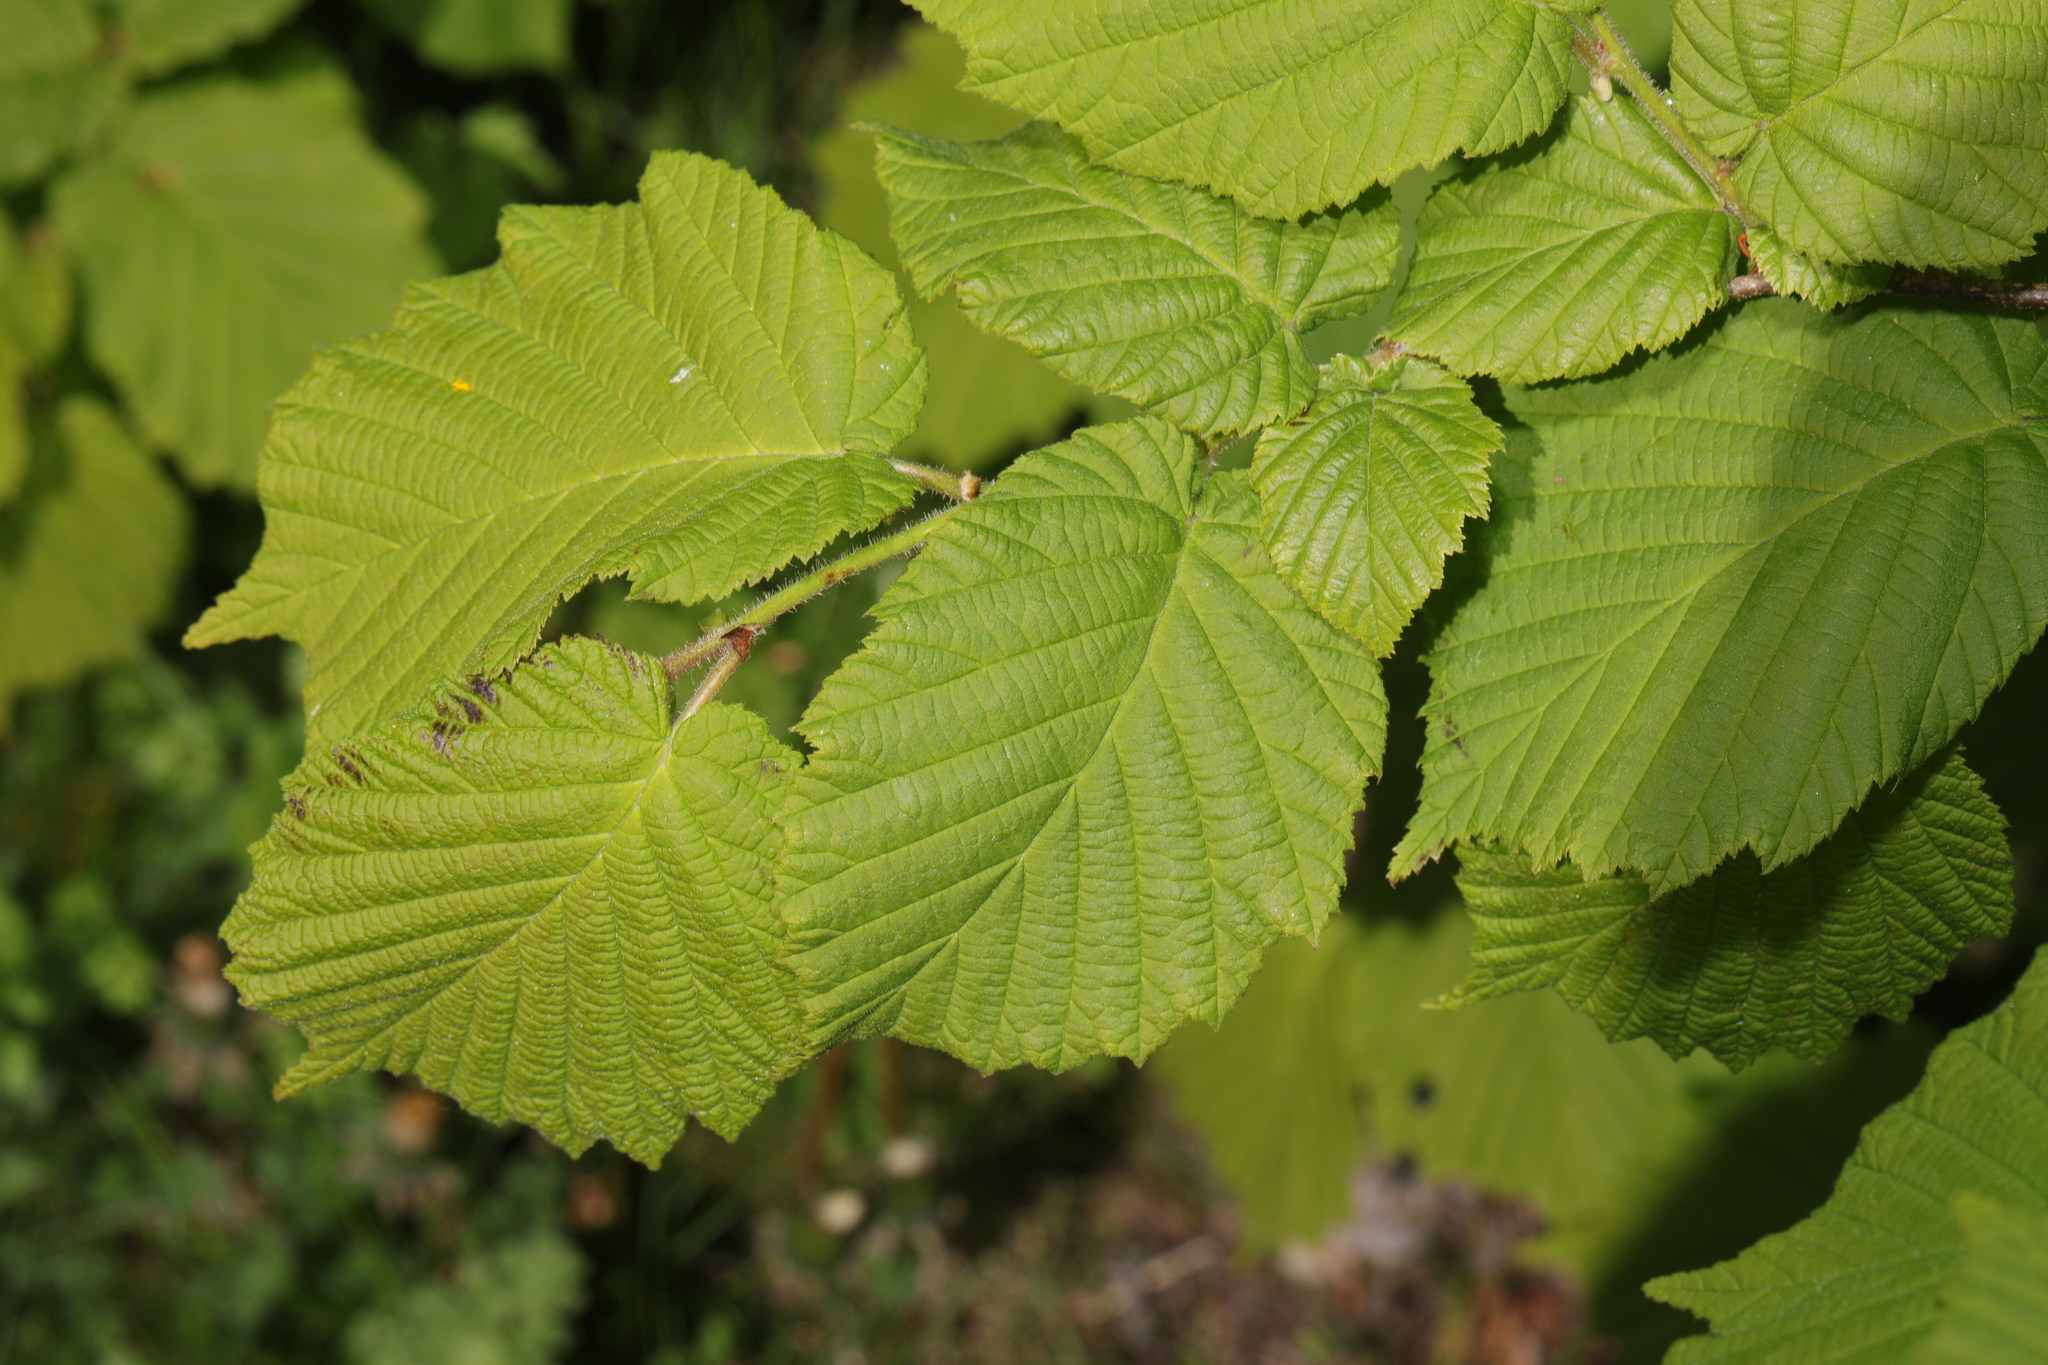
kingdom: Plantae
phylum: Tracheophyta
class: Magnoliopsida
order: Fagales
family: Betulaceae
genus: Corylus
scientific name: Corylus avellana
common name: European hazel
